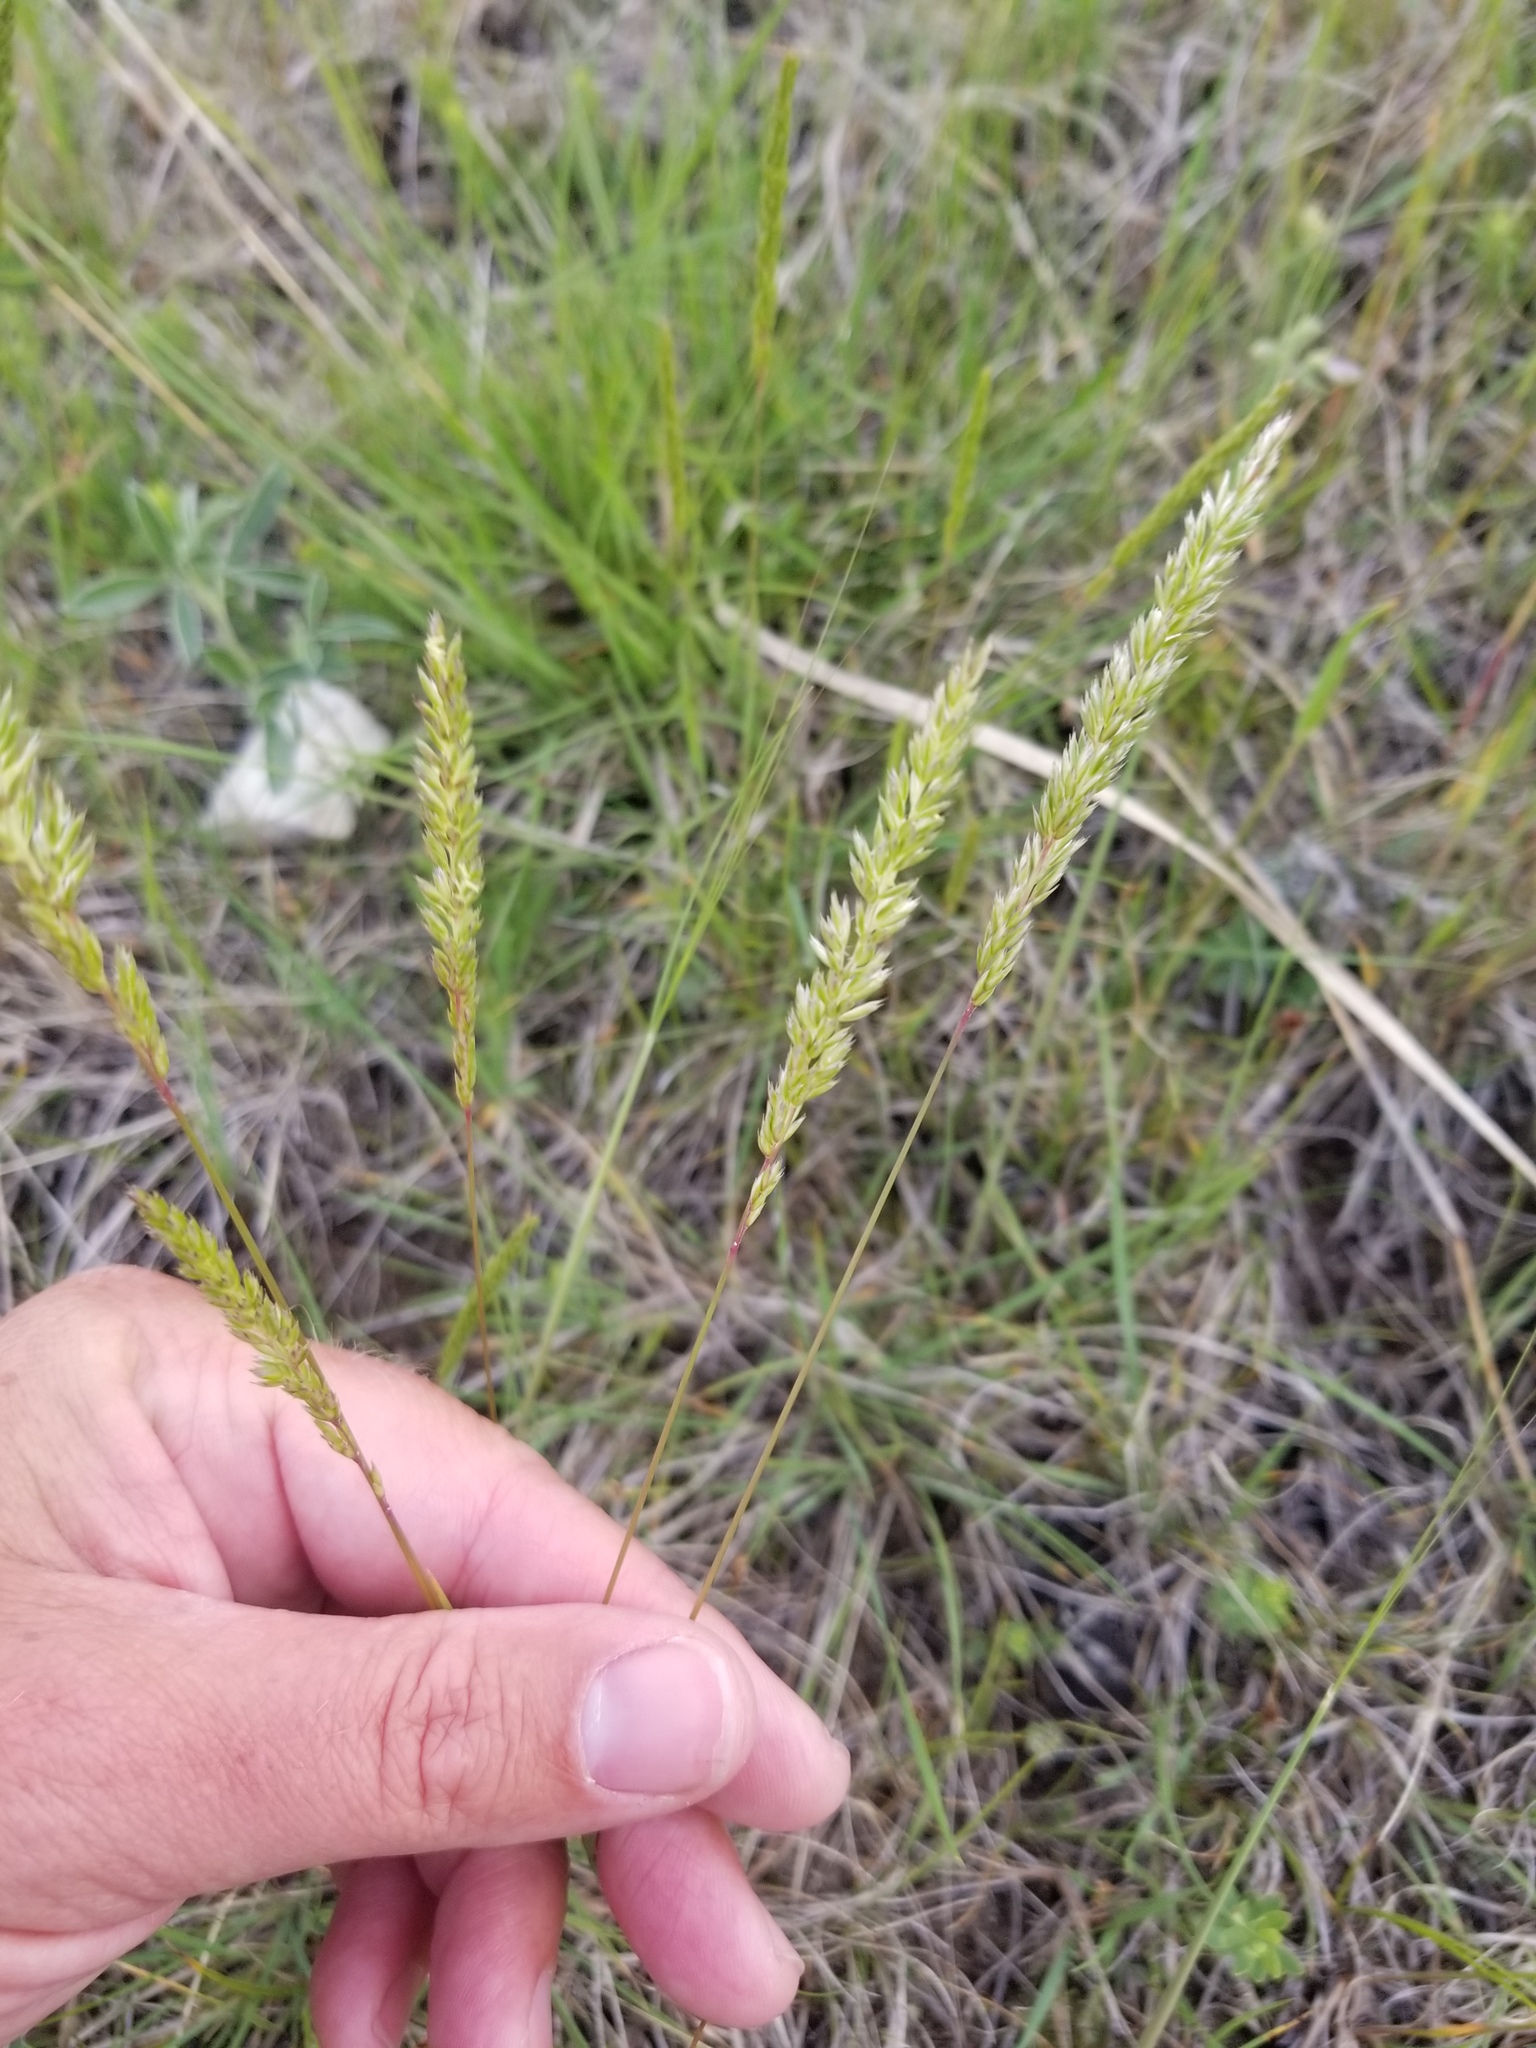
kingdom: Plantae
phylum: Tracheophyta
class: Liliopsida
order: Poales
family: Poaceae
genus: Koeleria
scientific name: Koeleria macrantha
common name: Crested hair-grass
